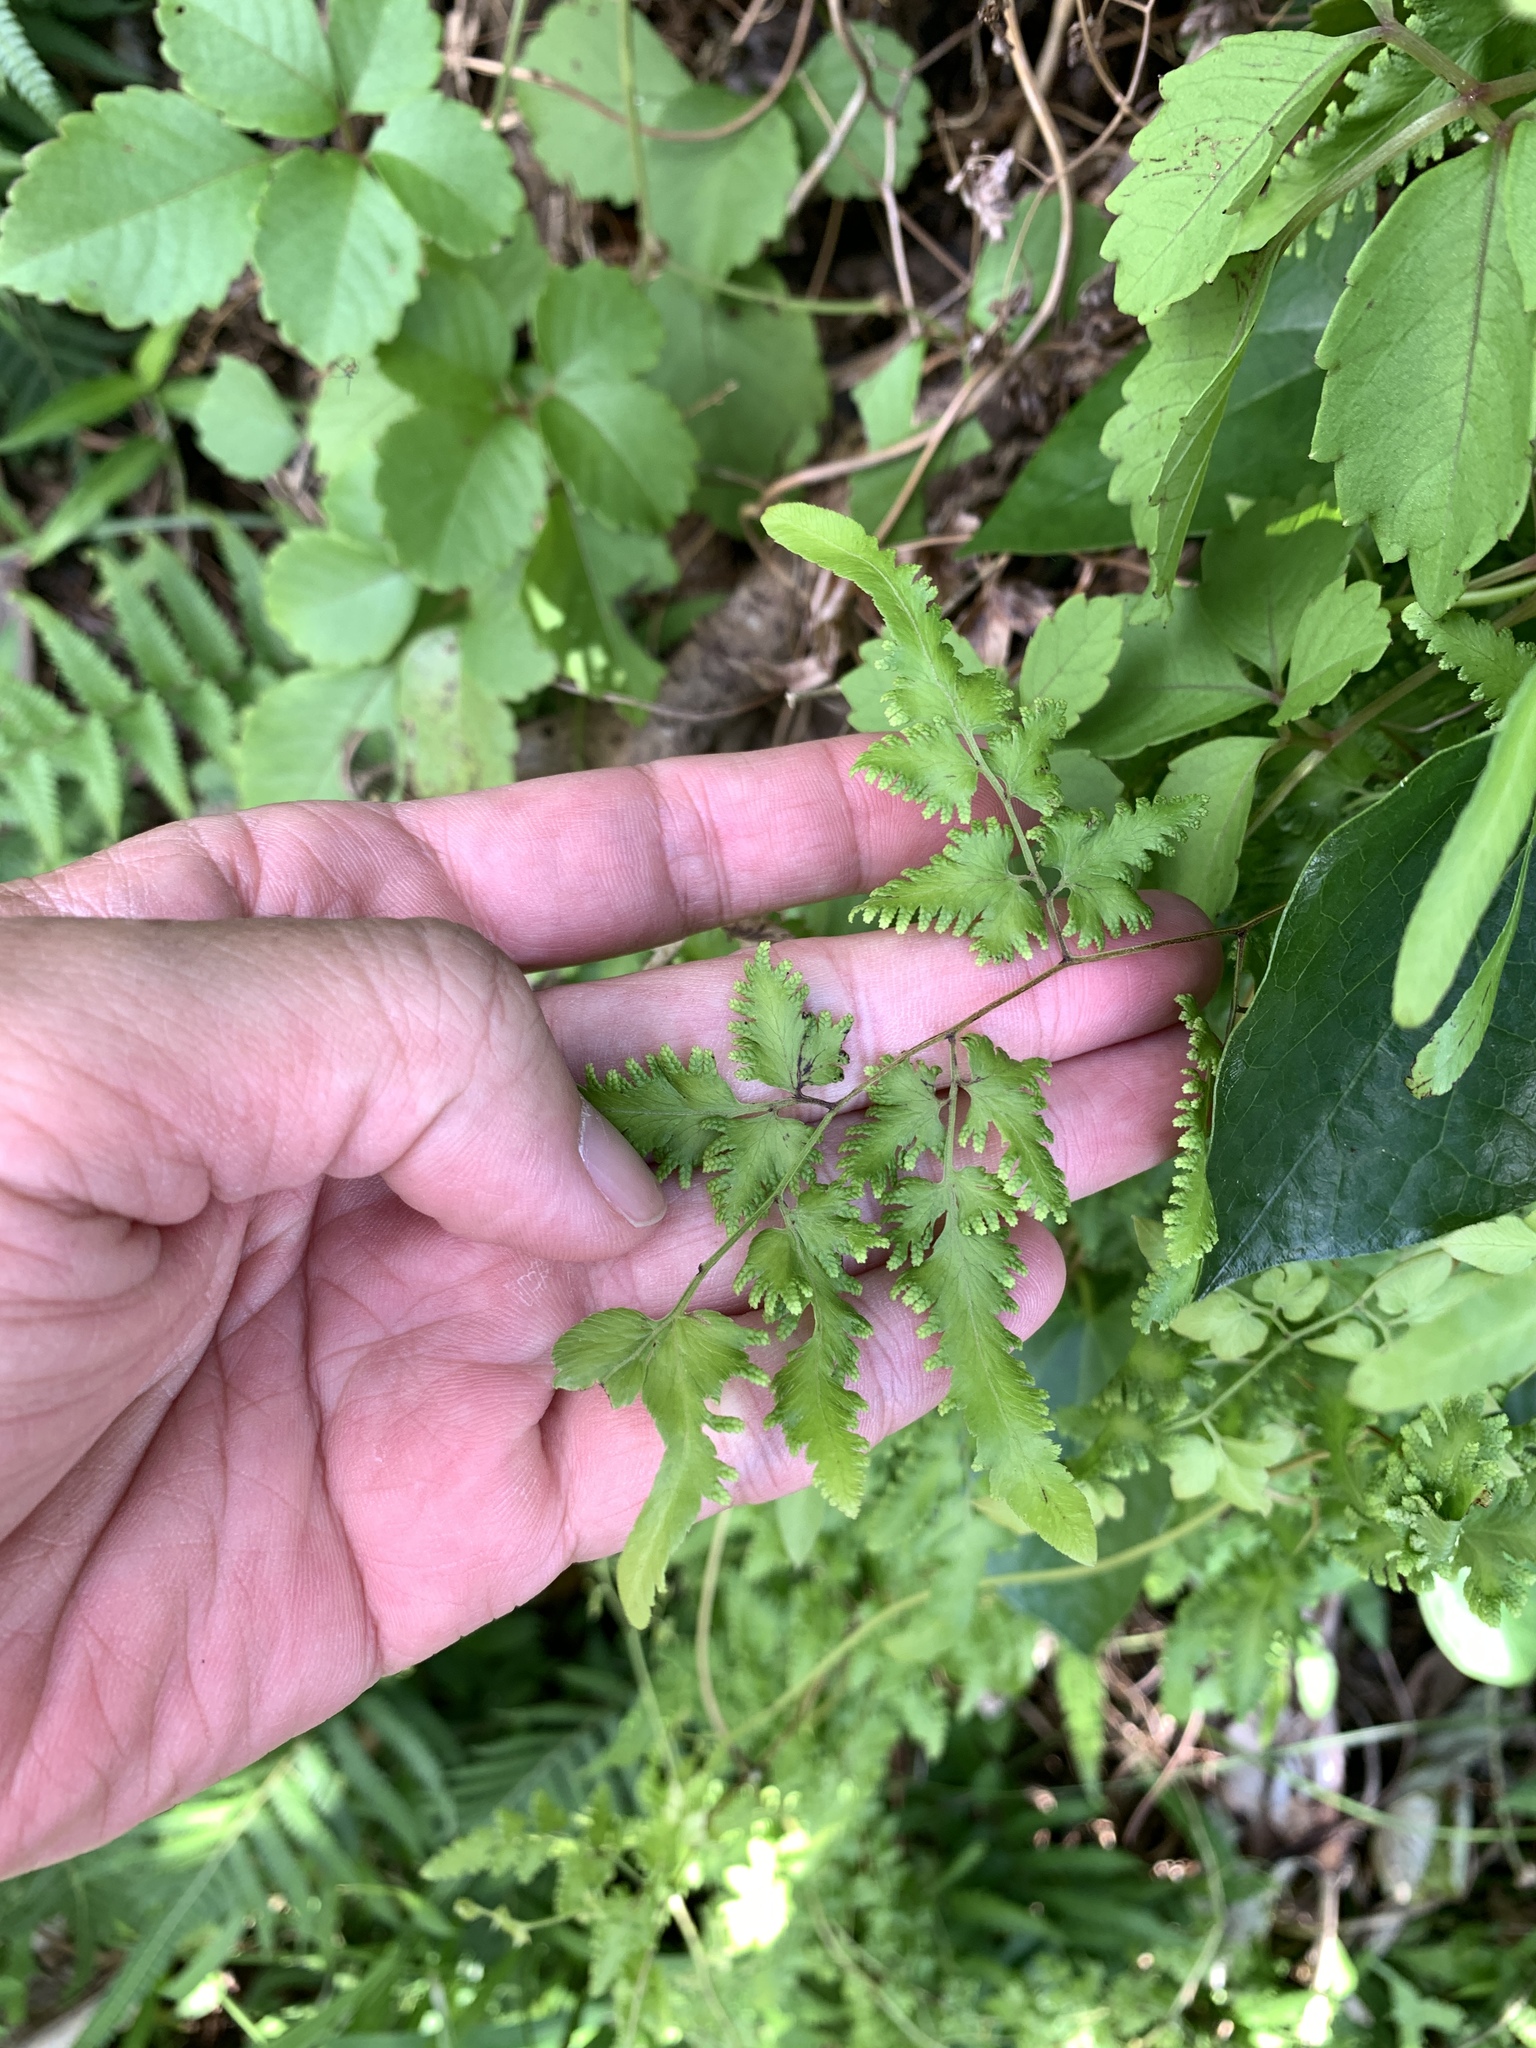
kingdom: Plantae
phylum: Tracheophyta
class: Polypodiopsida
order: Schizaeales
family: Lygodiaceae
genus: Lygodium
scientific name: Lygodium japonicum
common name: Japanese climbing fern
